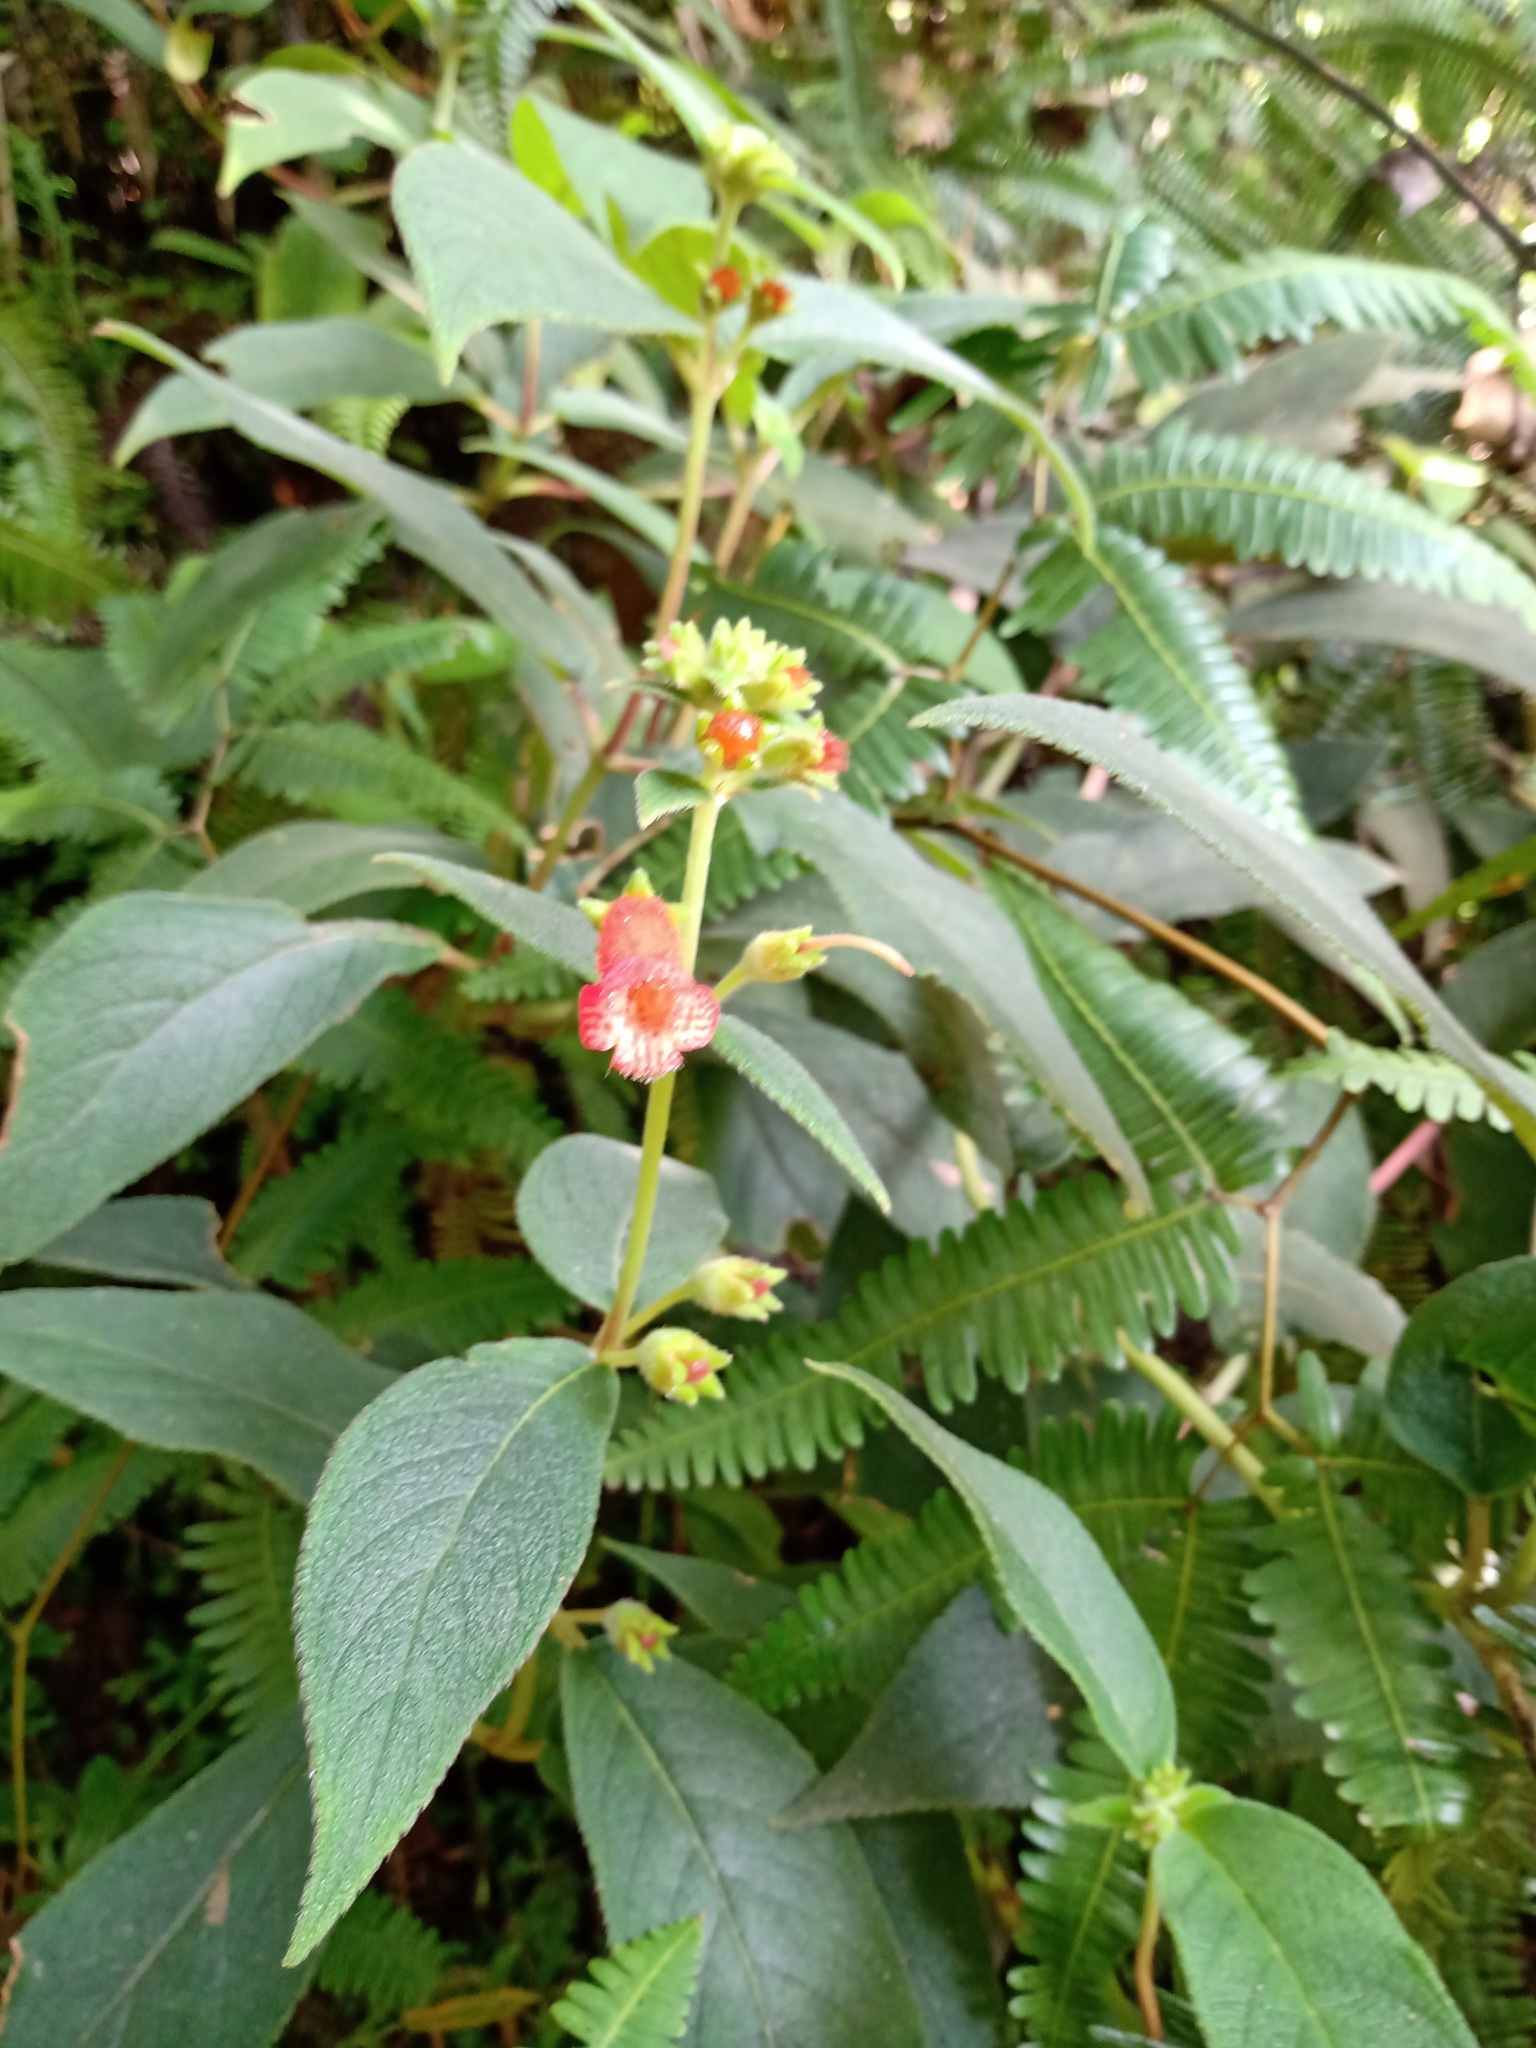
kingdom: Plantae
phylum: Tracheophyta
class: Magnoliopsida
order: Lamiales
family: Gesneriaceae
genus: Kohleria
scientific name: Kohleria spicata
